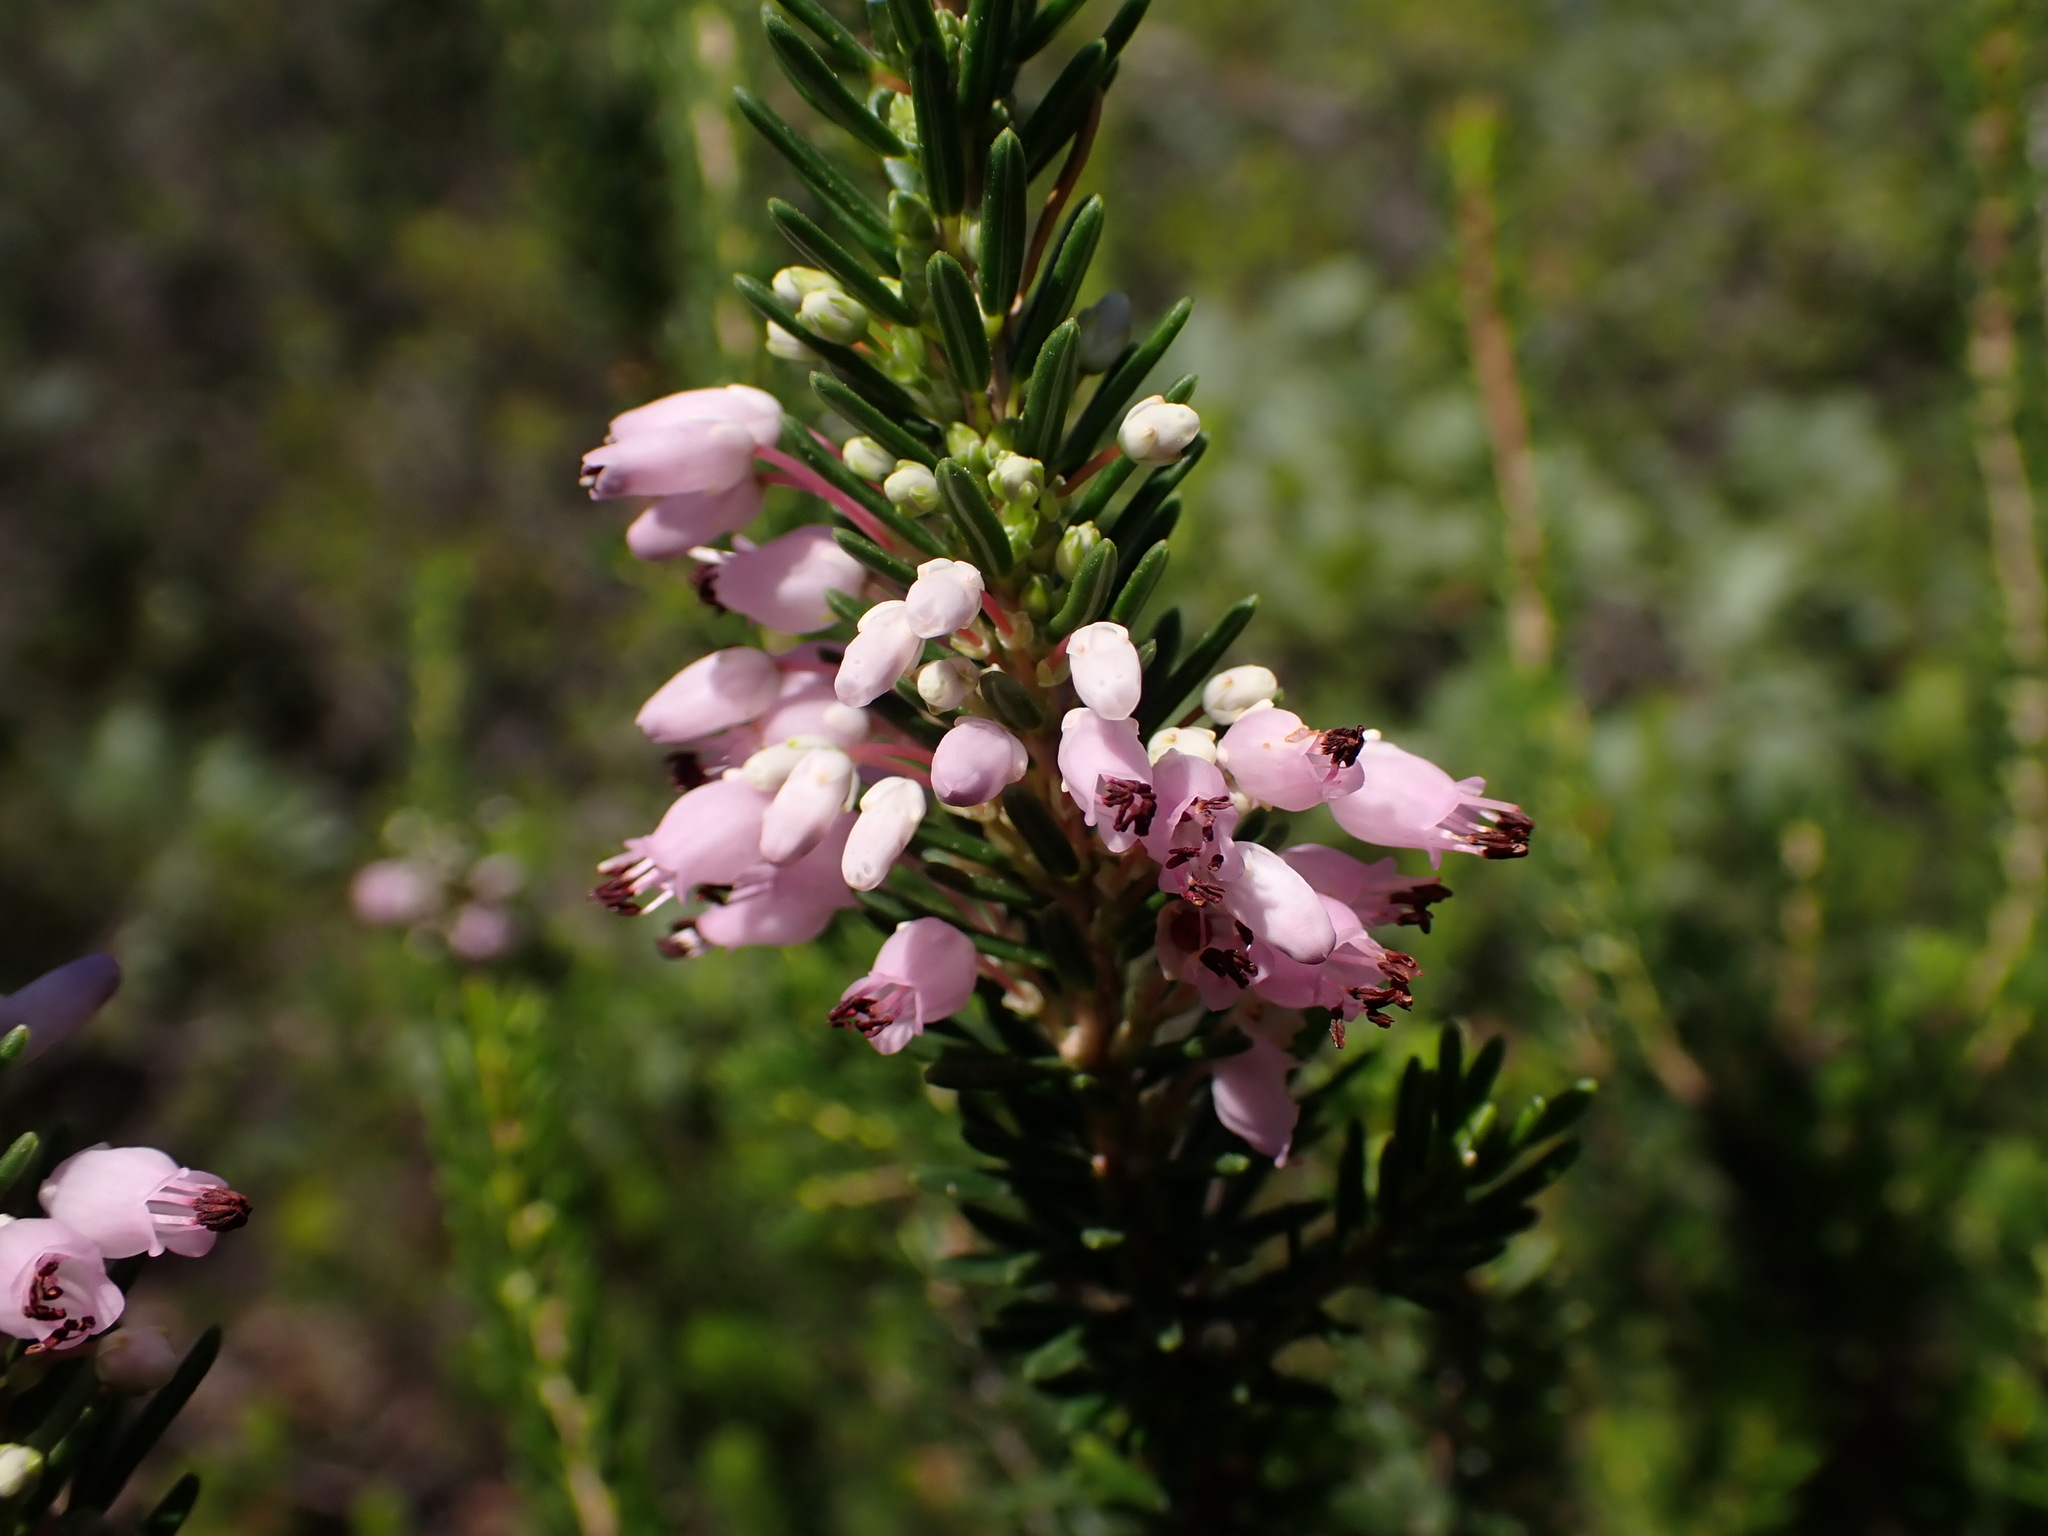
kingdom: Plantae
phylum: Tracheophyta
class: Magnoliopsida
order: Ericales
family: Ericaceae
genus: Erica
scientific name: Erica multiflora
